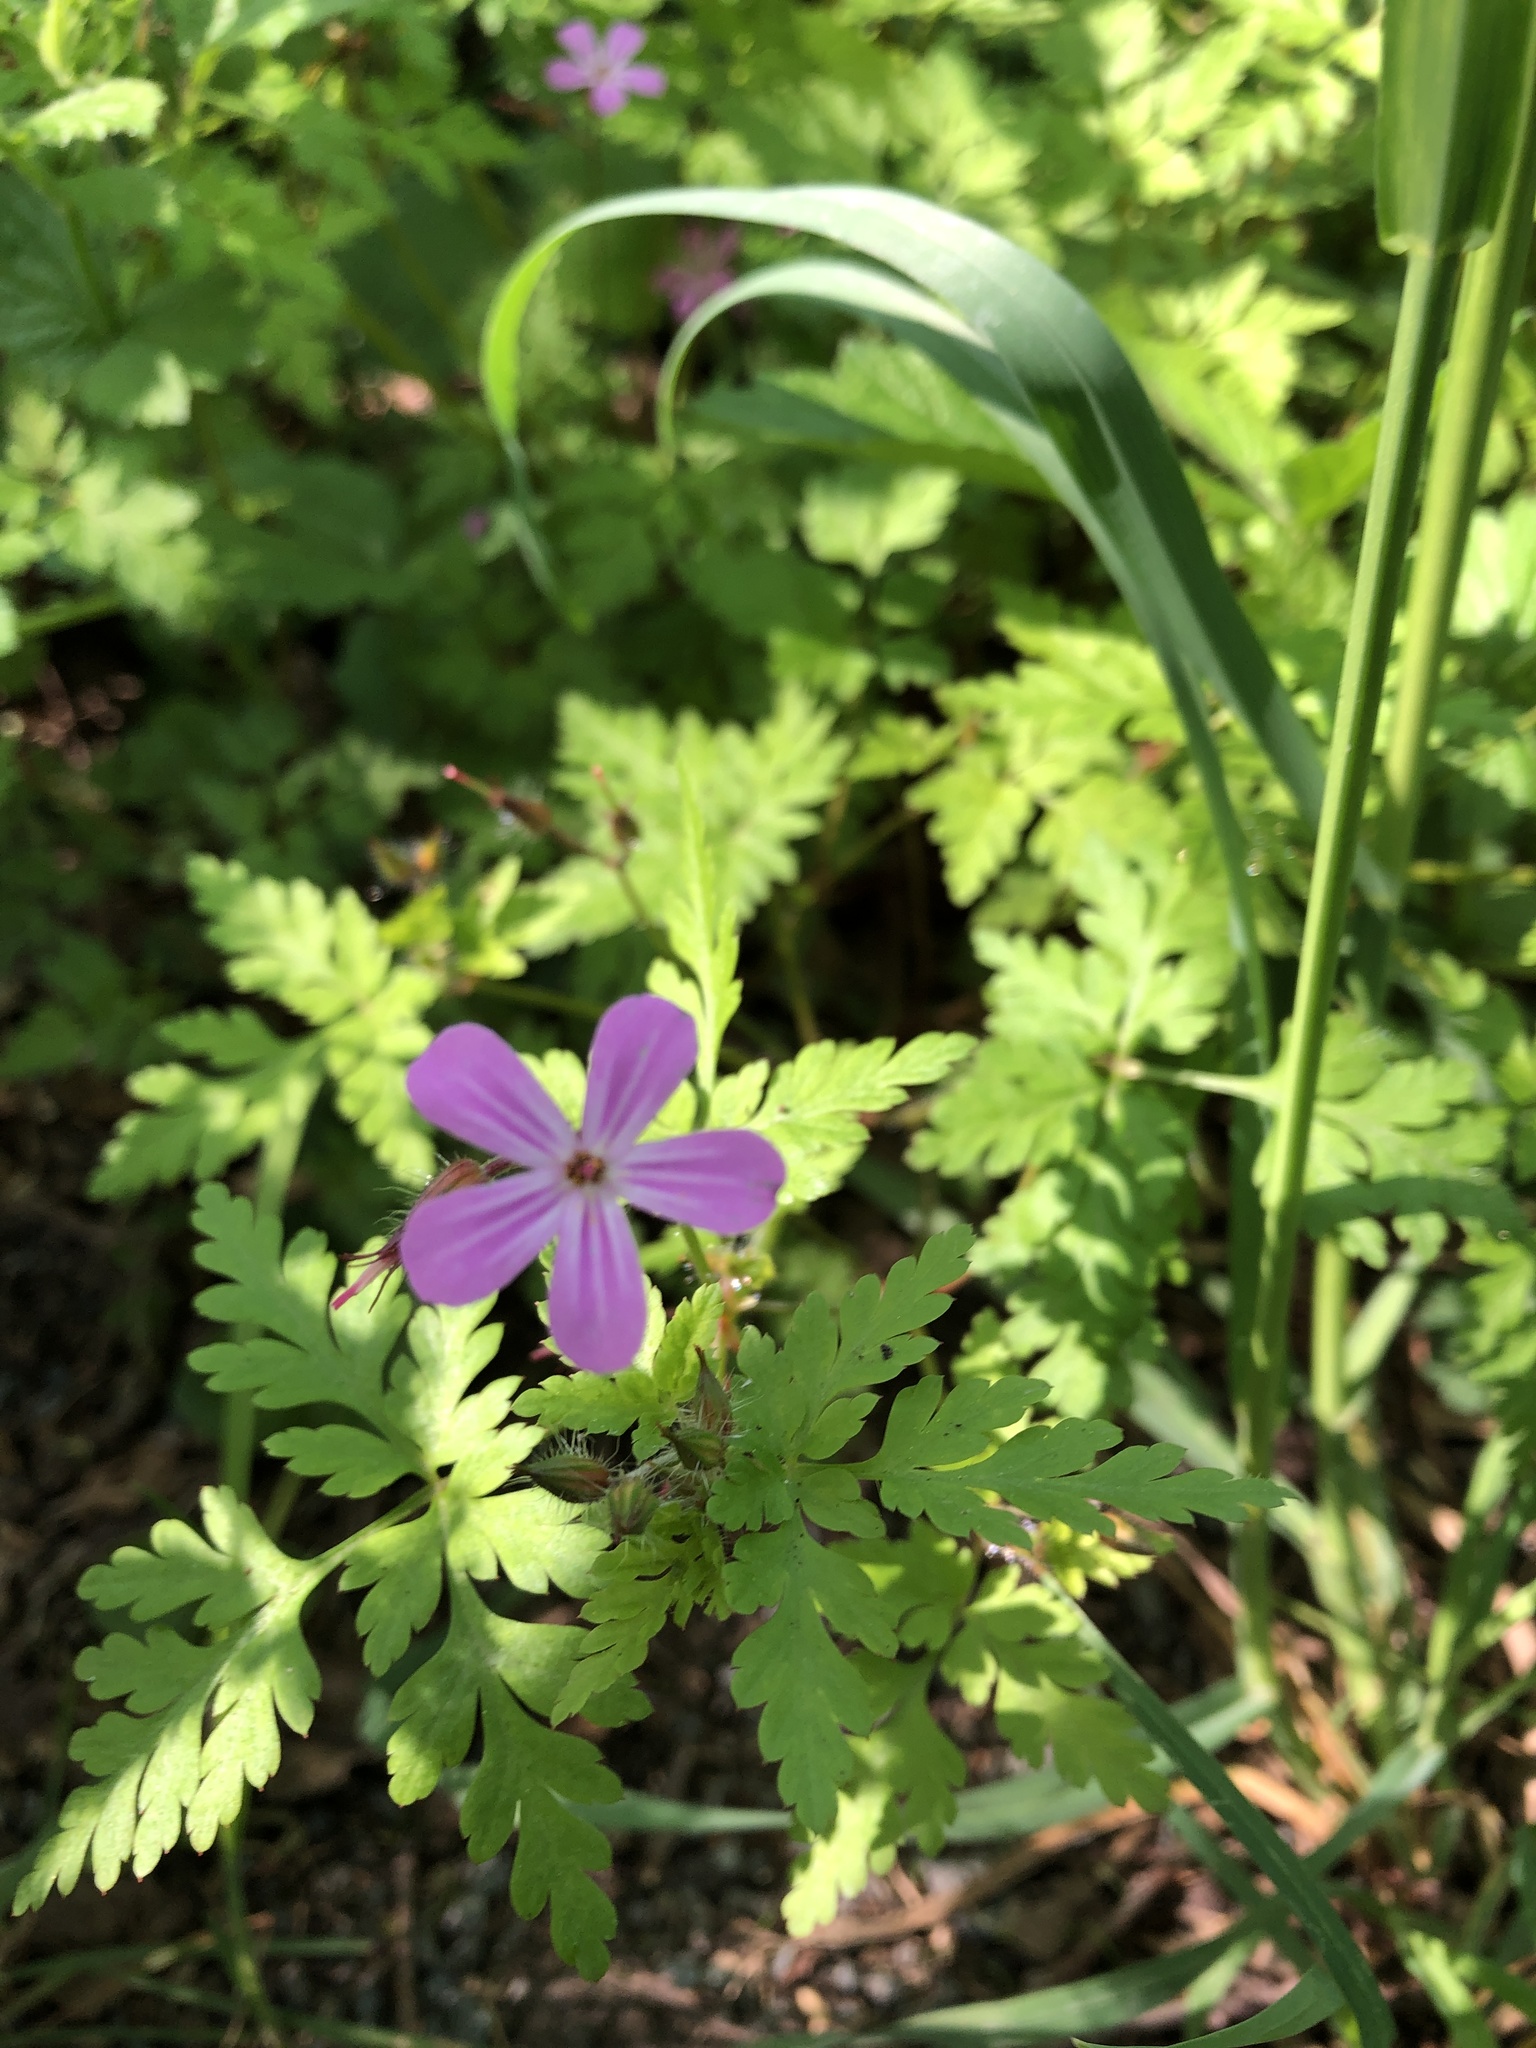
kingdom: Plantae
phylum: Tracheophyta
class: Magnoliopsida
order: Geraniales
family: Geraniaceae
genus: Geranium
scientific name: Geranium robertianum
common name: Herb-robert
